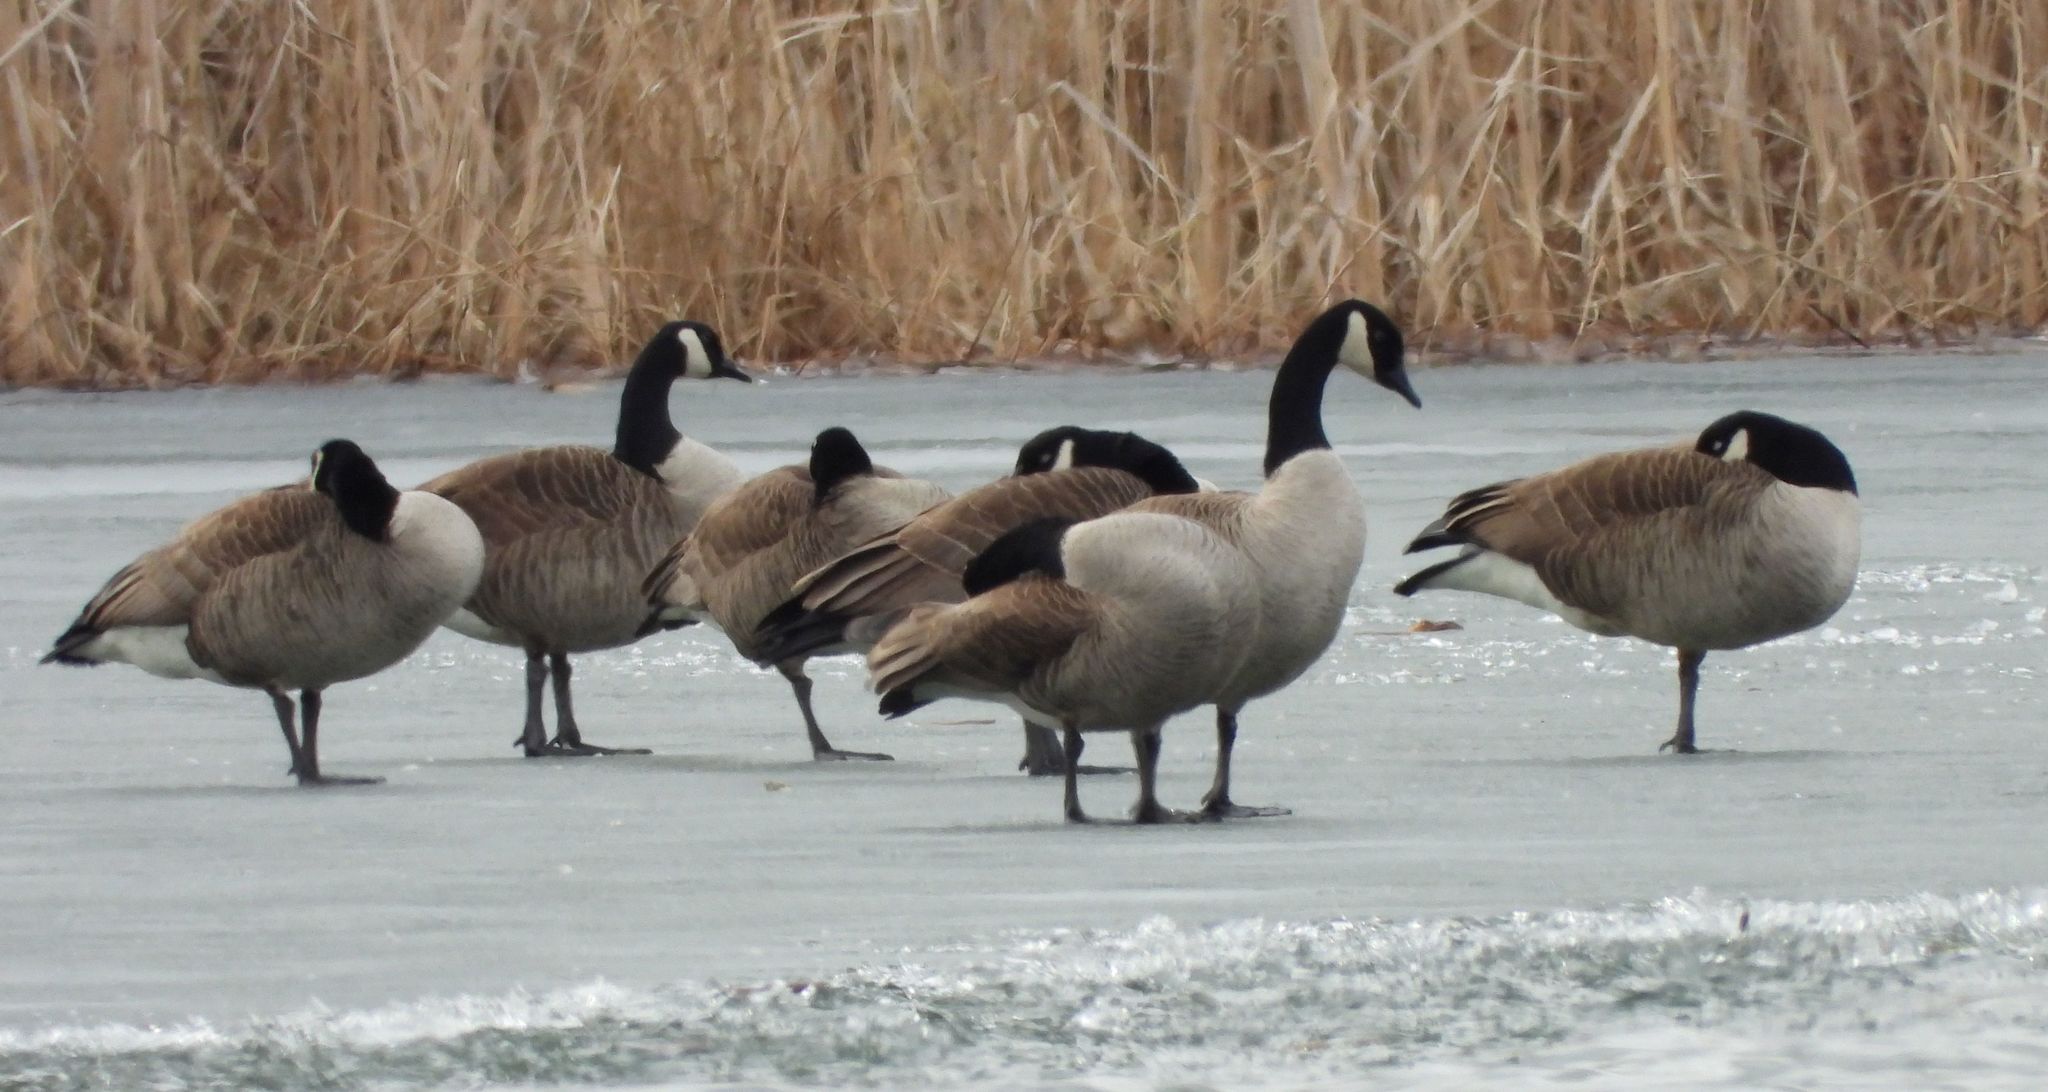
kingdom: Animalia
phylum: Chordata
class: Aves
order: Anseriformes
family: Anatidae
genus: Branta
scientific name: Branta canadensis
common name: Canada goose
